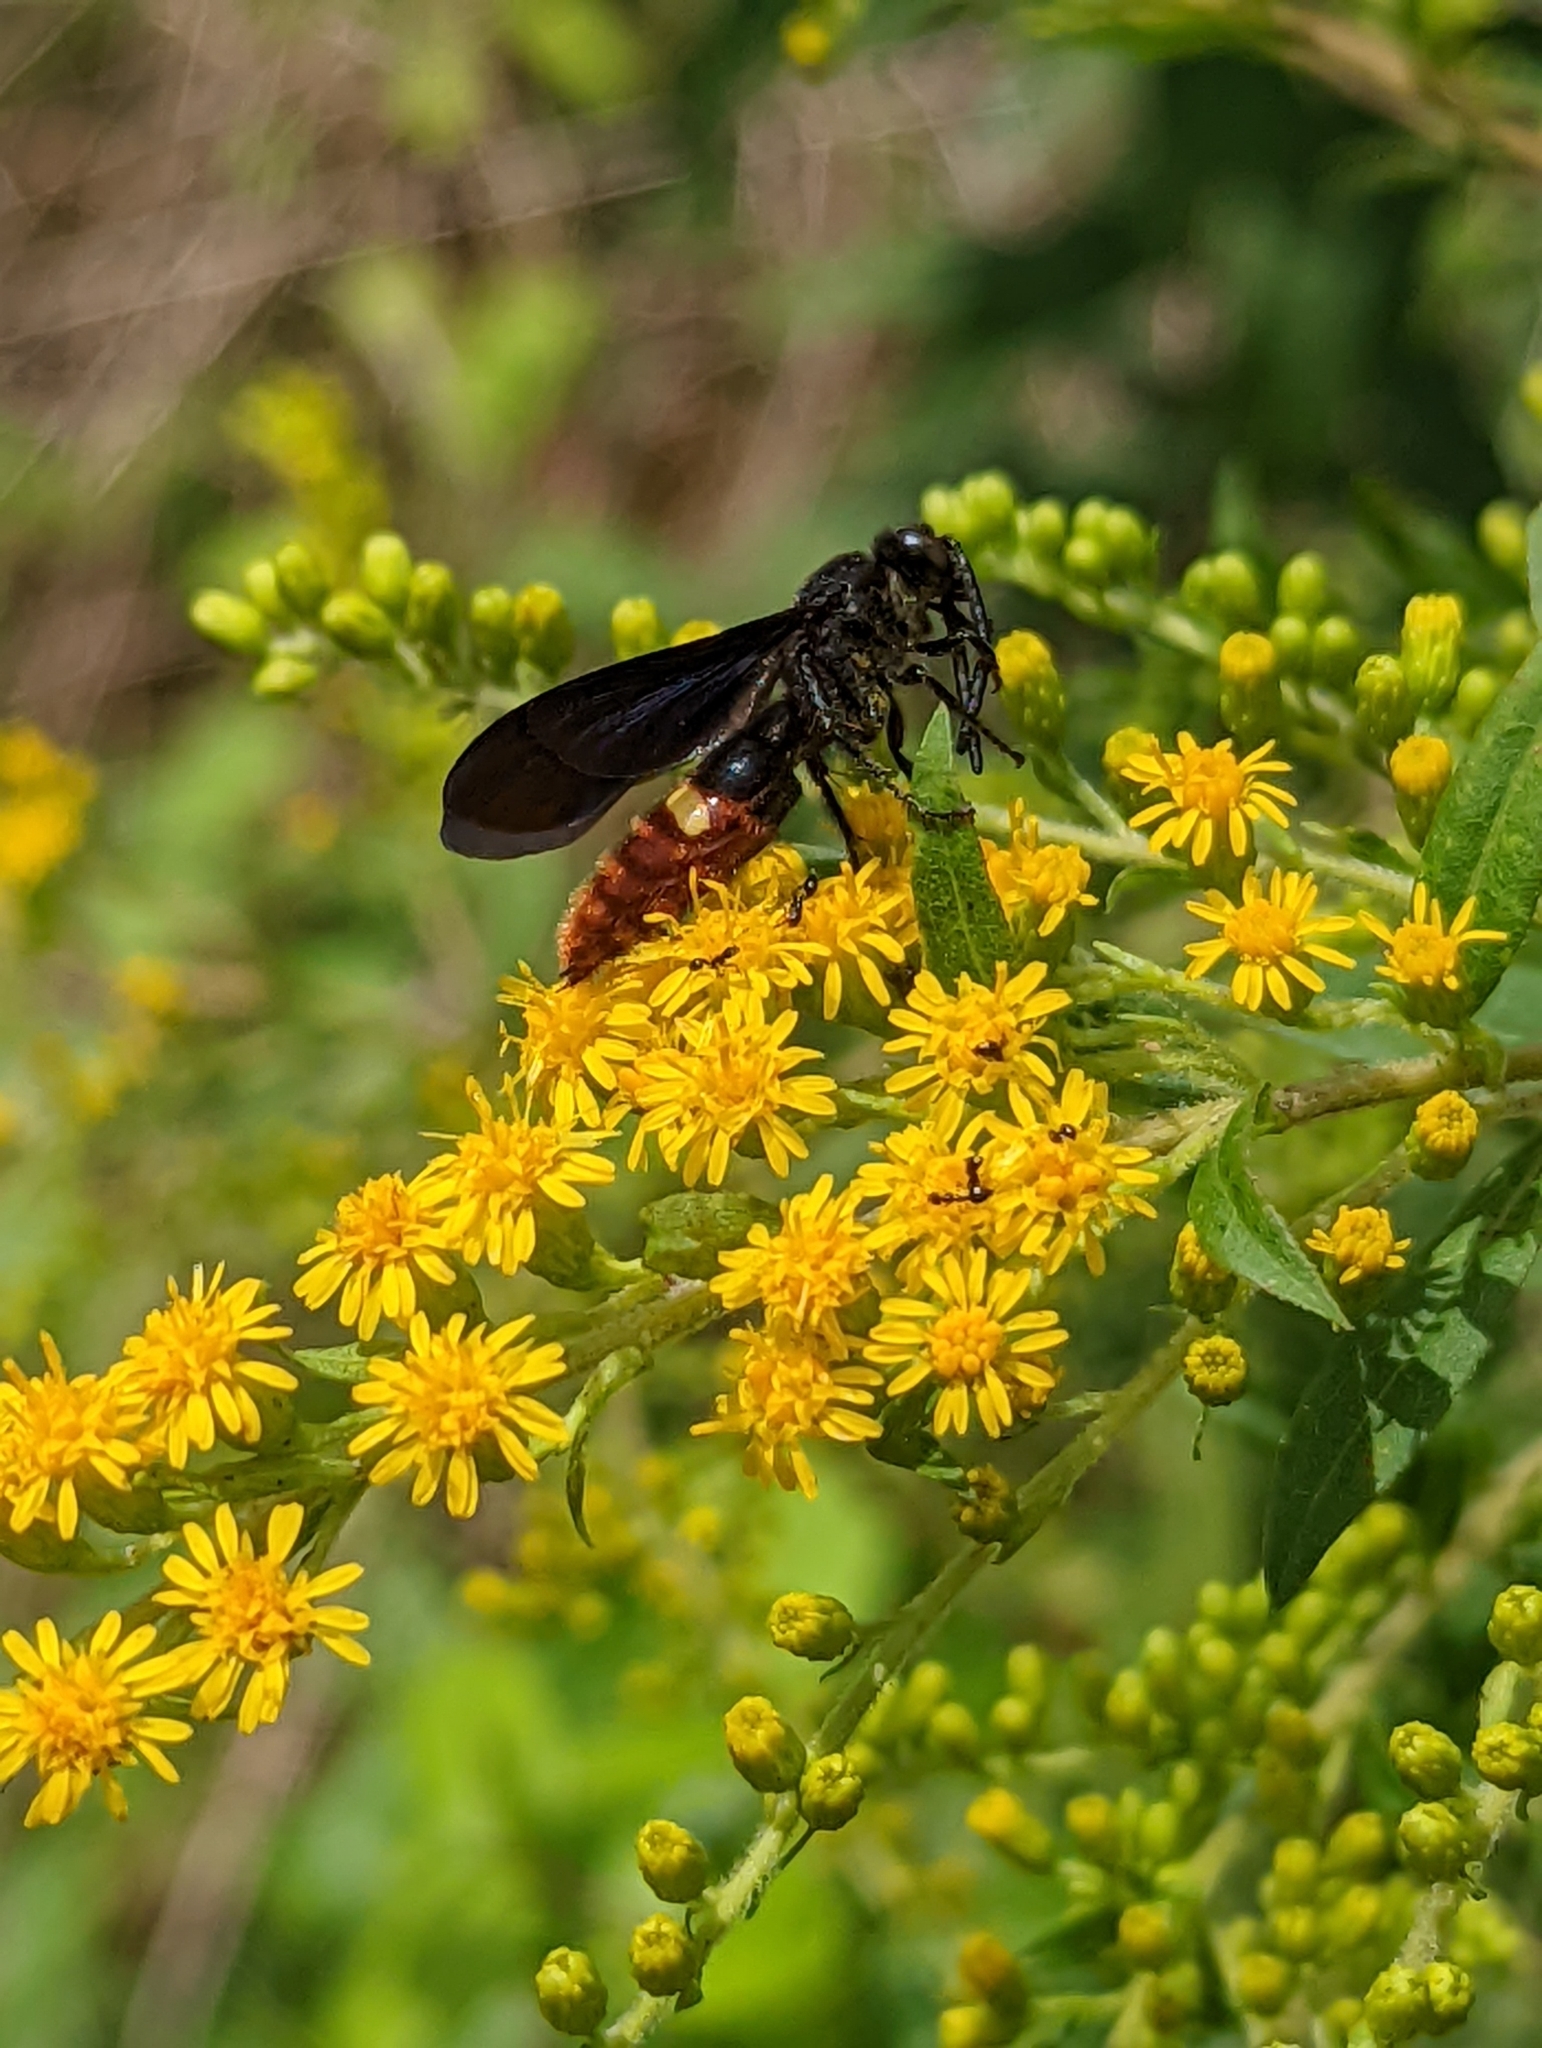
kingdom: Animalia
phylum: Arthropoda
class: Insecta
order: Hymenoptera
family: Scoliidae
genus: Scolia
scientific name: Scolia dubia
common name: Blue-winged scoliid wasp
